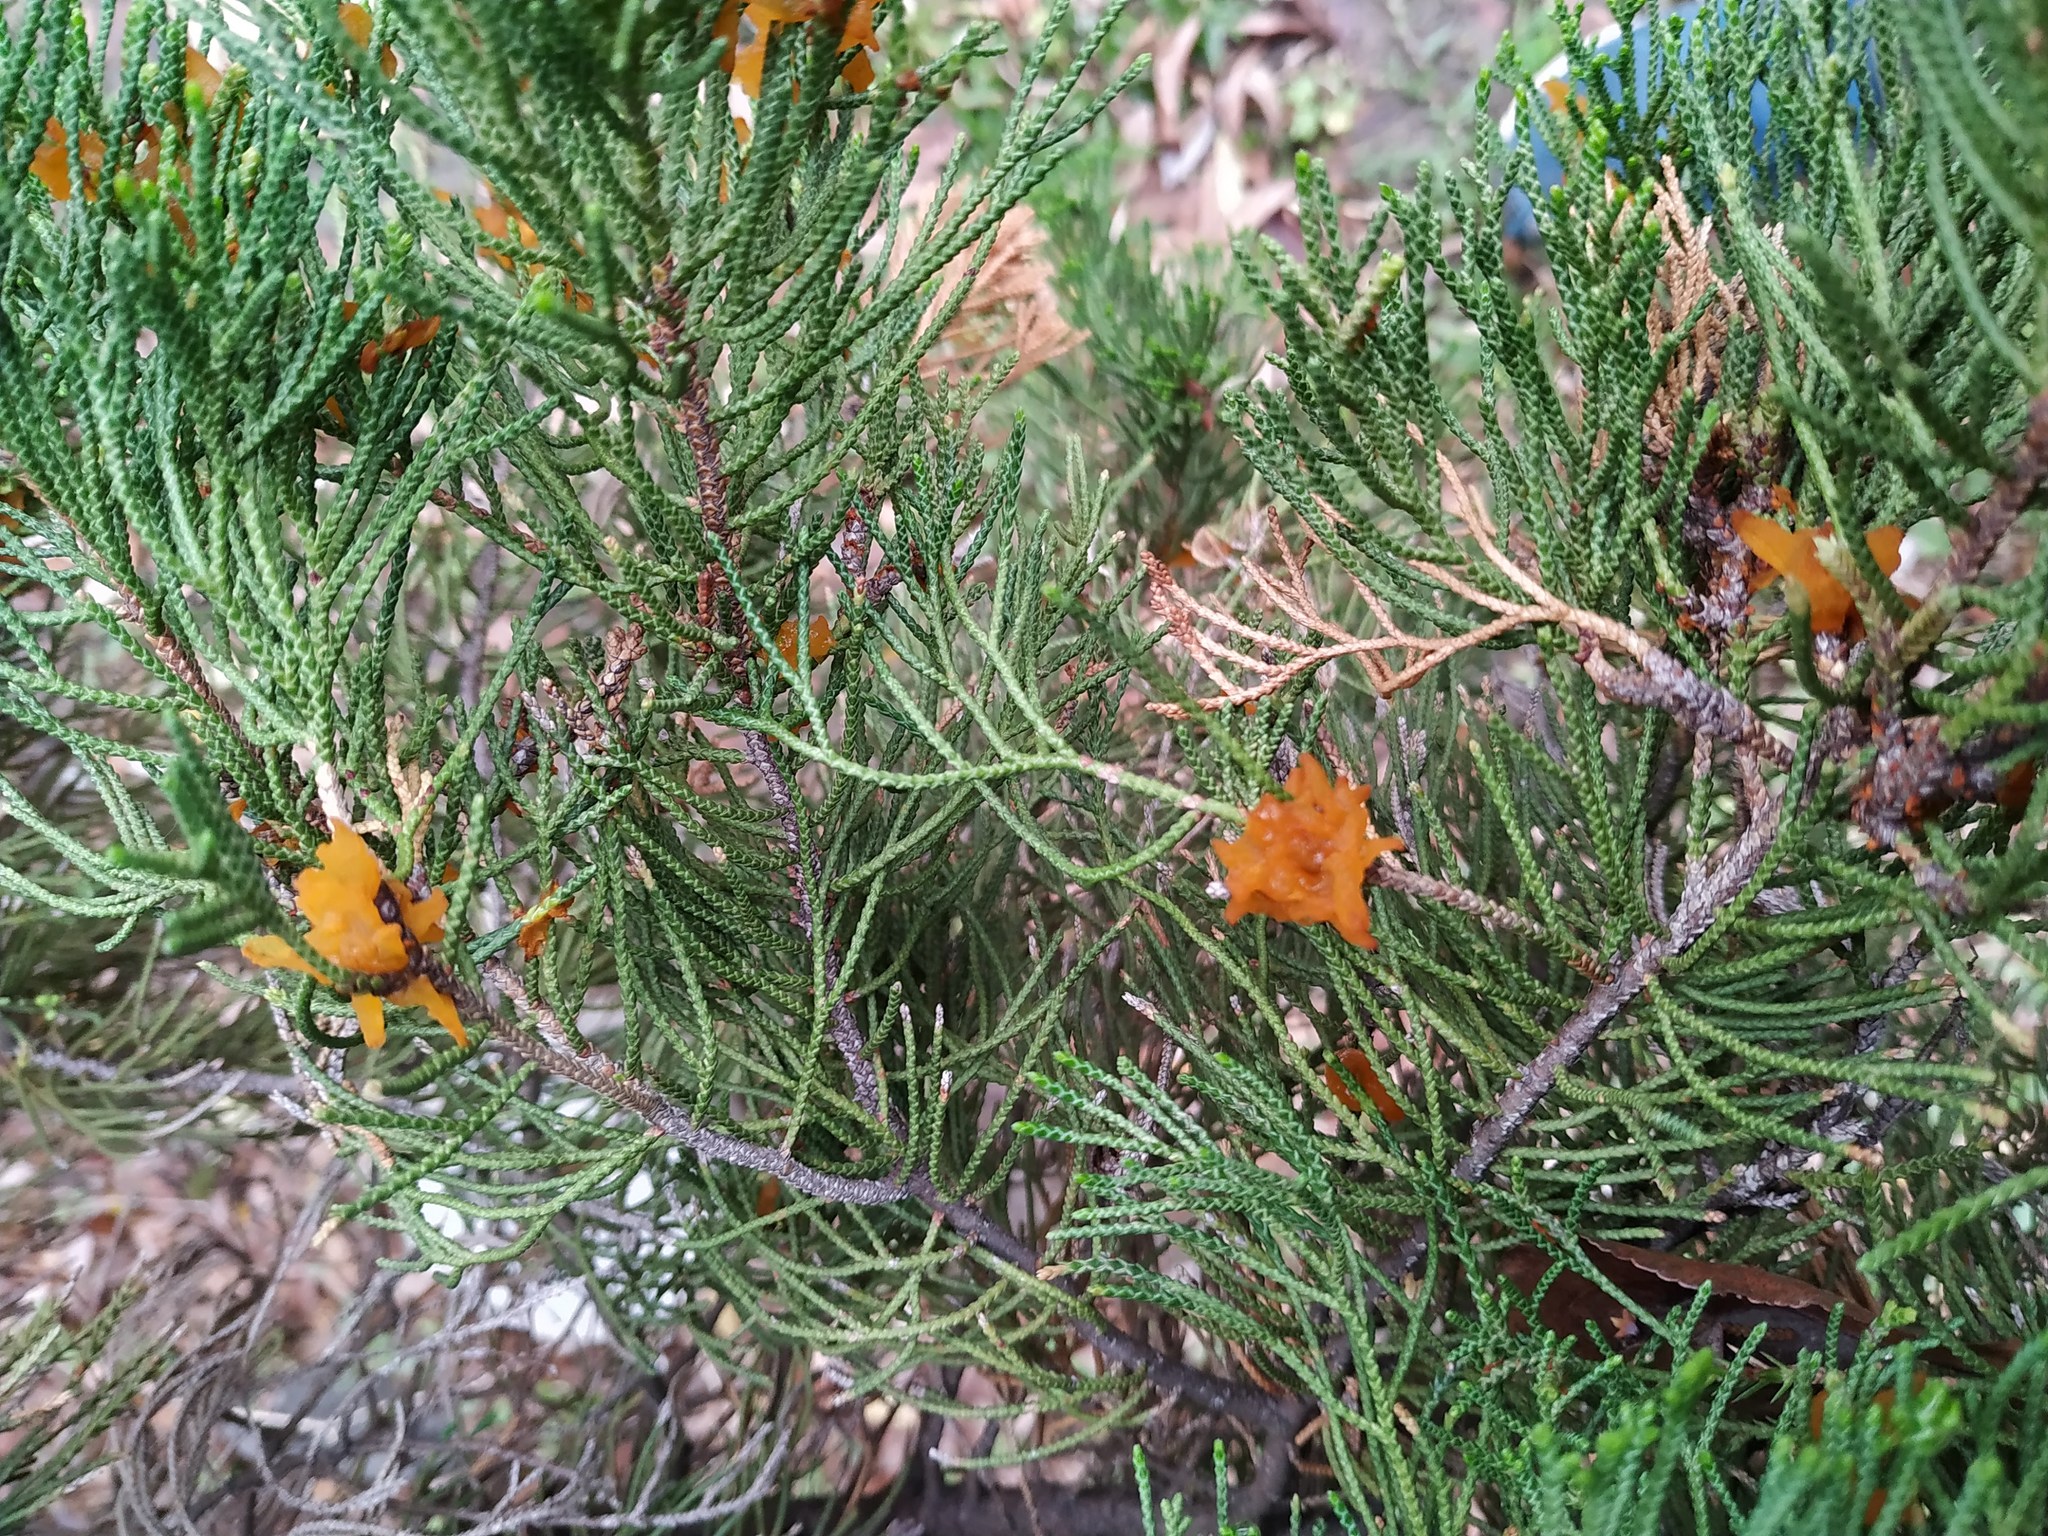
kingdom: Fungi
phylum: Basidiomycota
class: Pucciniomycetes
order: Pucciniales
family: Gymnosporangiaceae
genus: Gymnosporangium
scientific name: Gymnosporangium asiaticum
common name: Japanese pear rust
